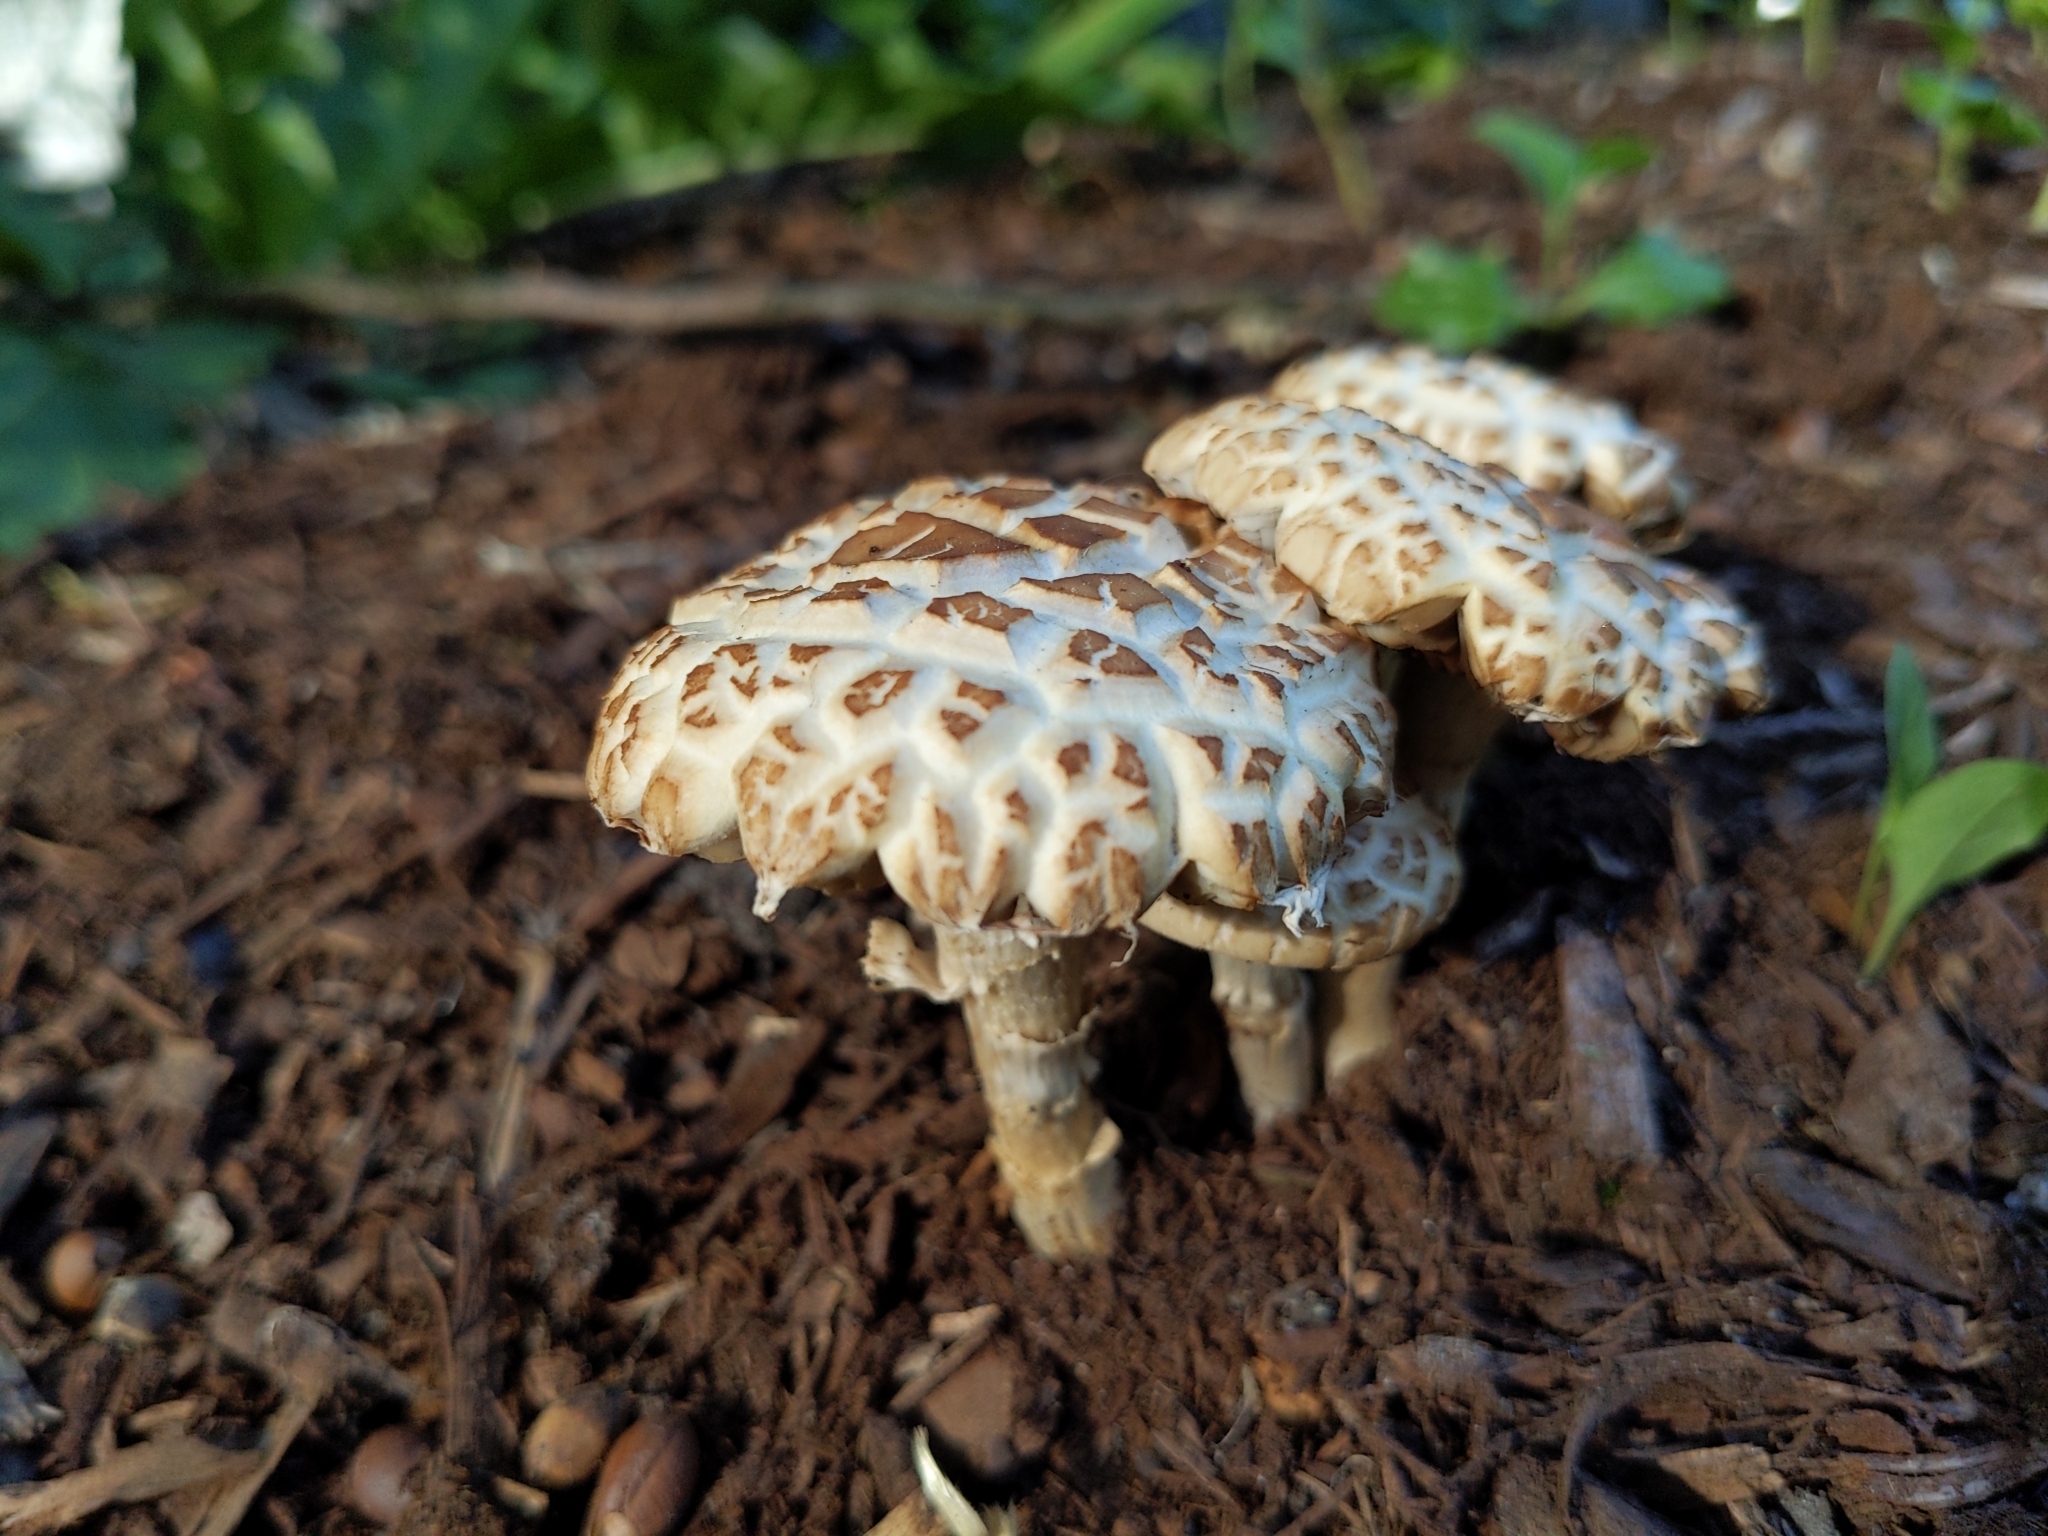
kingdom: Fungi
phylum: Basidiomycota
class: Agaricomycetes
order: Agaricales
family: Strophariaceae
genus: Agrocybe
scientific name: Agrocybe praecox
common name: Spring fieldcap
